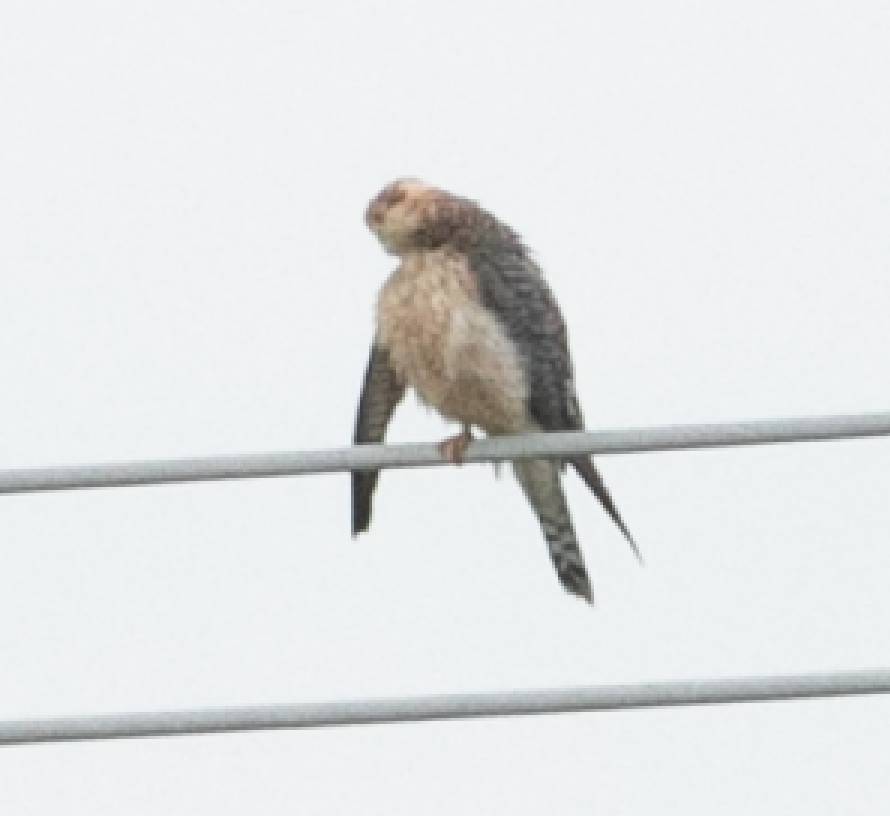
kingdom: Animalia
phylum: Chordata
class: Aves
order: Falconiformes
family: Falconidae
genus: Falco
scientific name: Falco vespertinus
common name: Red-footed falcon
